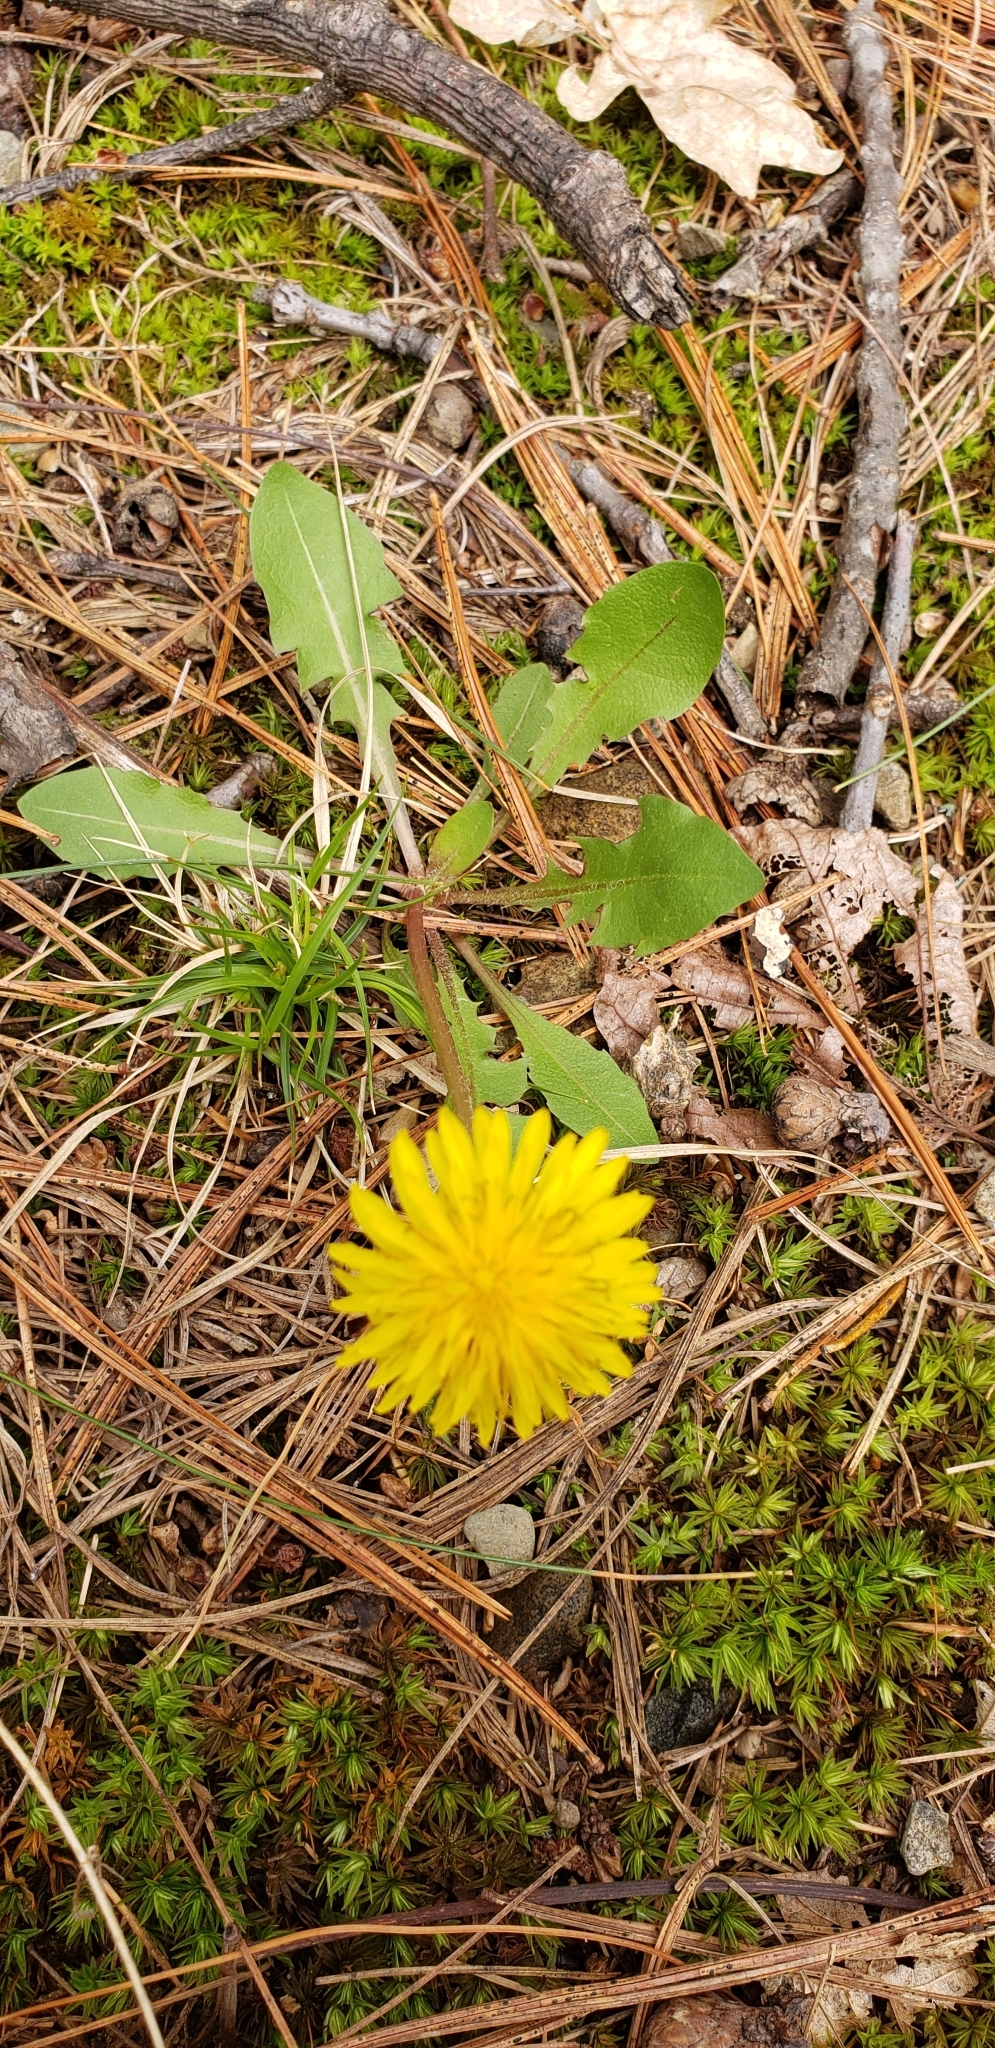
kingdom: Plantae
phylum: Tracheophyta
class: Magnoliopsida
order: Asterales
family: Asteraceae
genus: Taraxacum
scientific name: Taraxacum officinale
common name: Common dandelion
